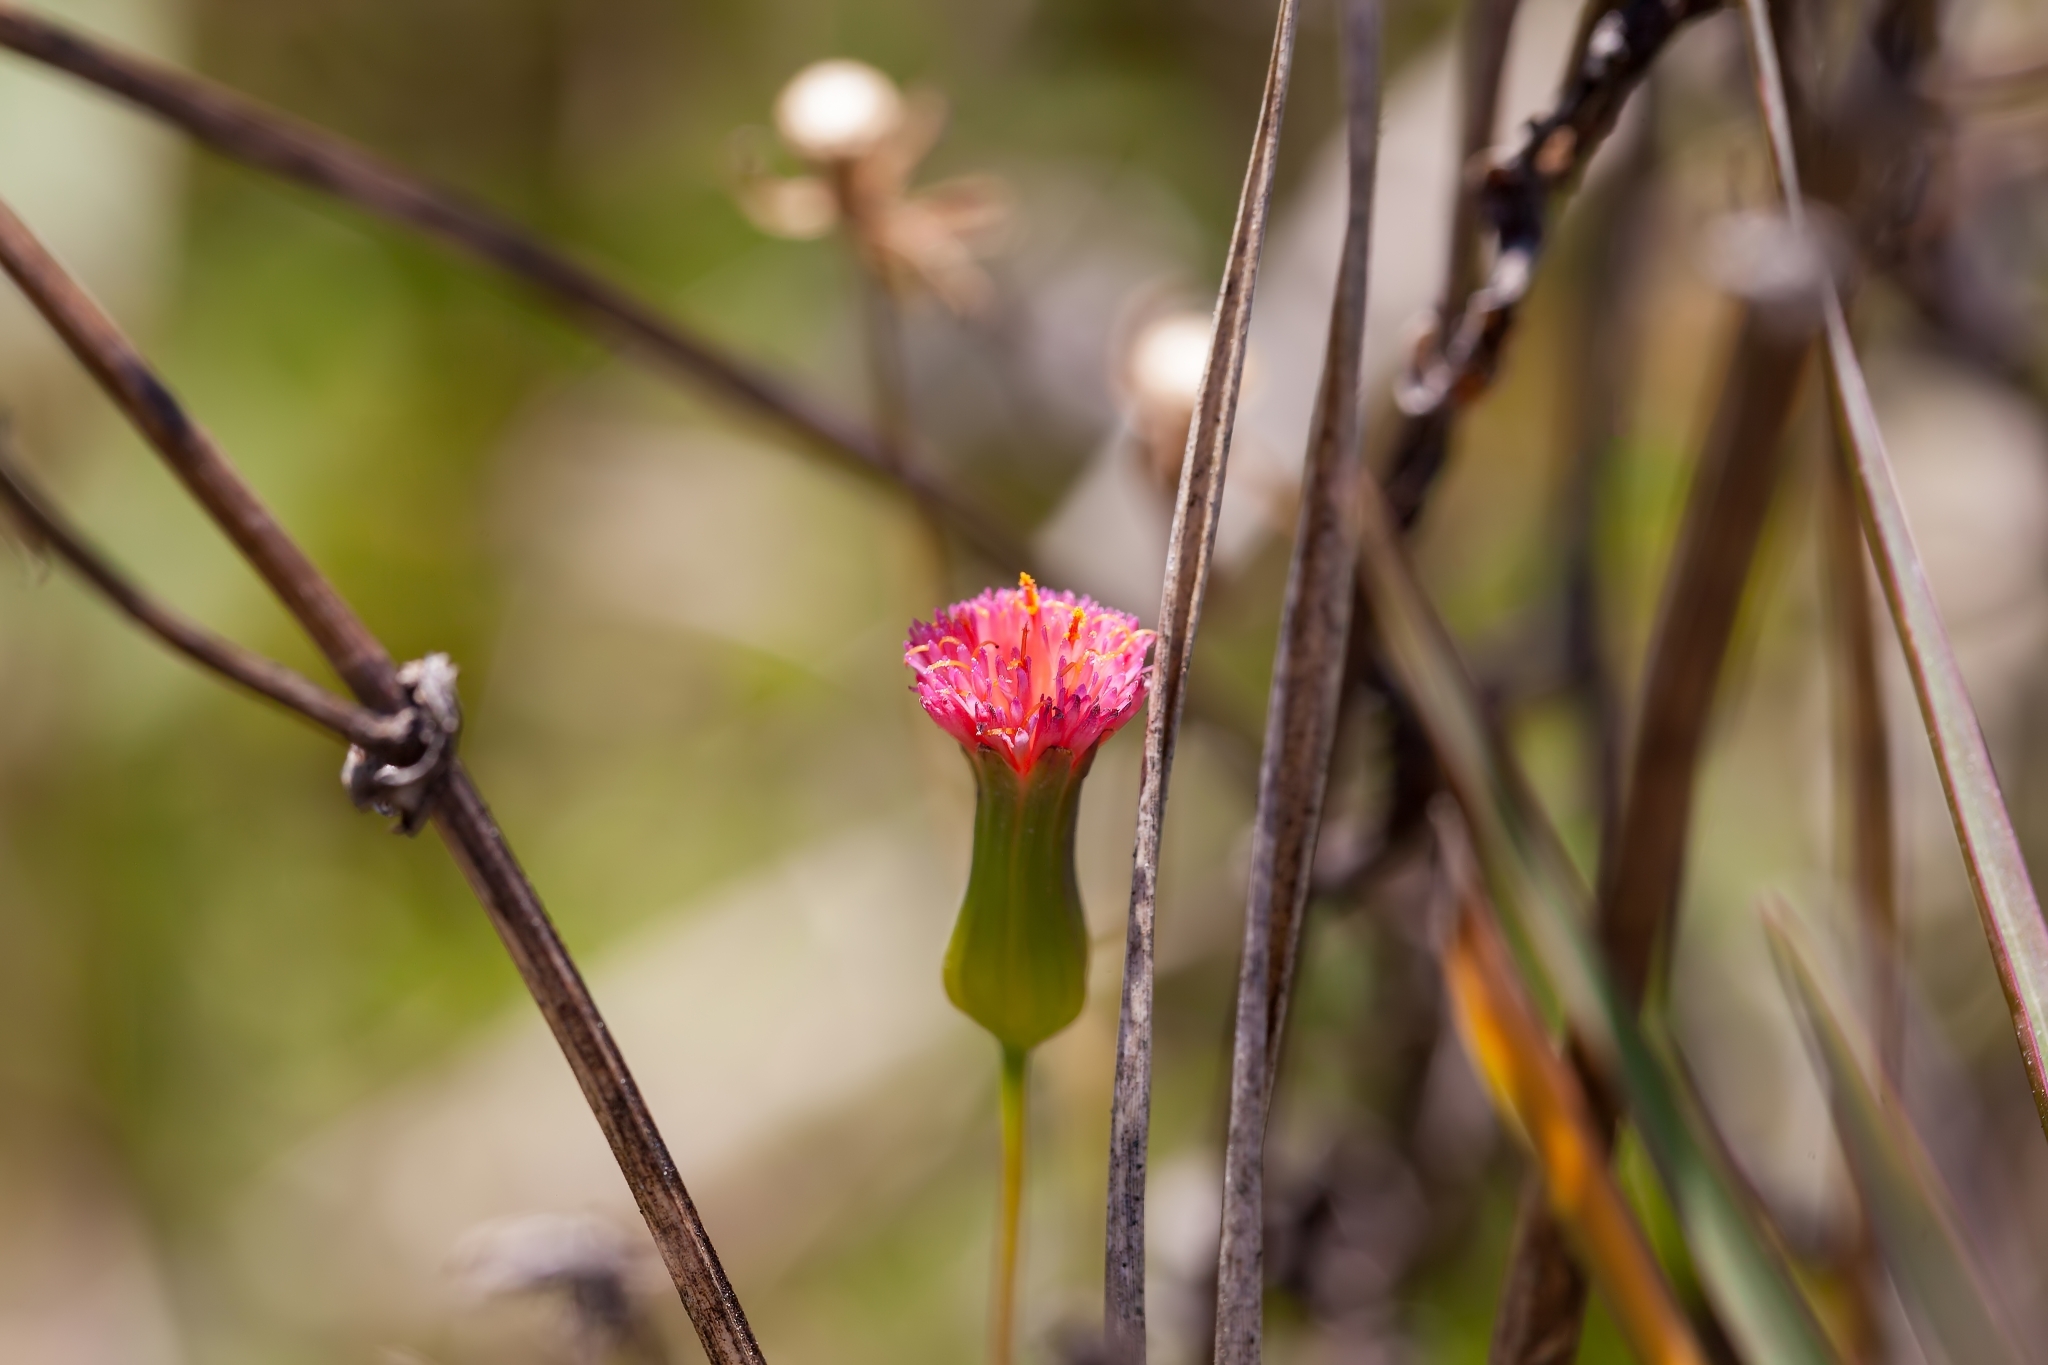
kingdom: Plantae
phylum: Tracheophyta
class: Magnoliopsida
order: Asterales
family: Asteraceae
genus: Emilia
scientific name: Emilia fosbergii
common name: Florida tasselflower
